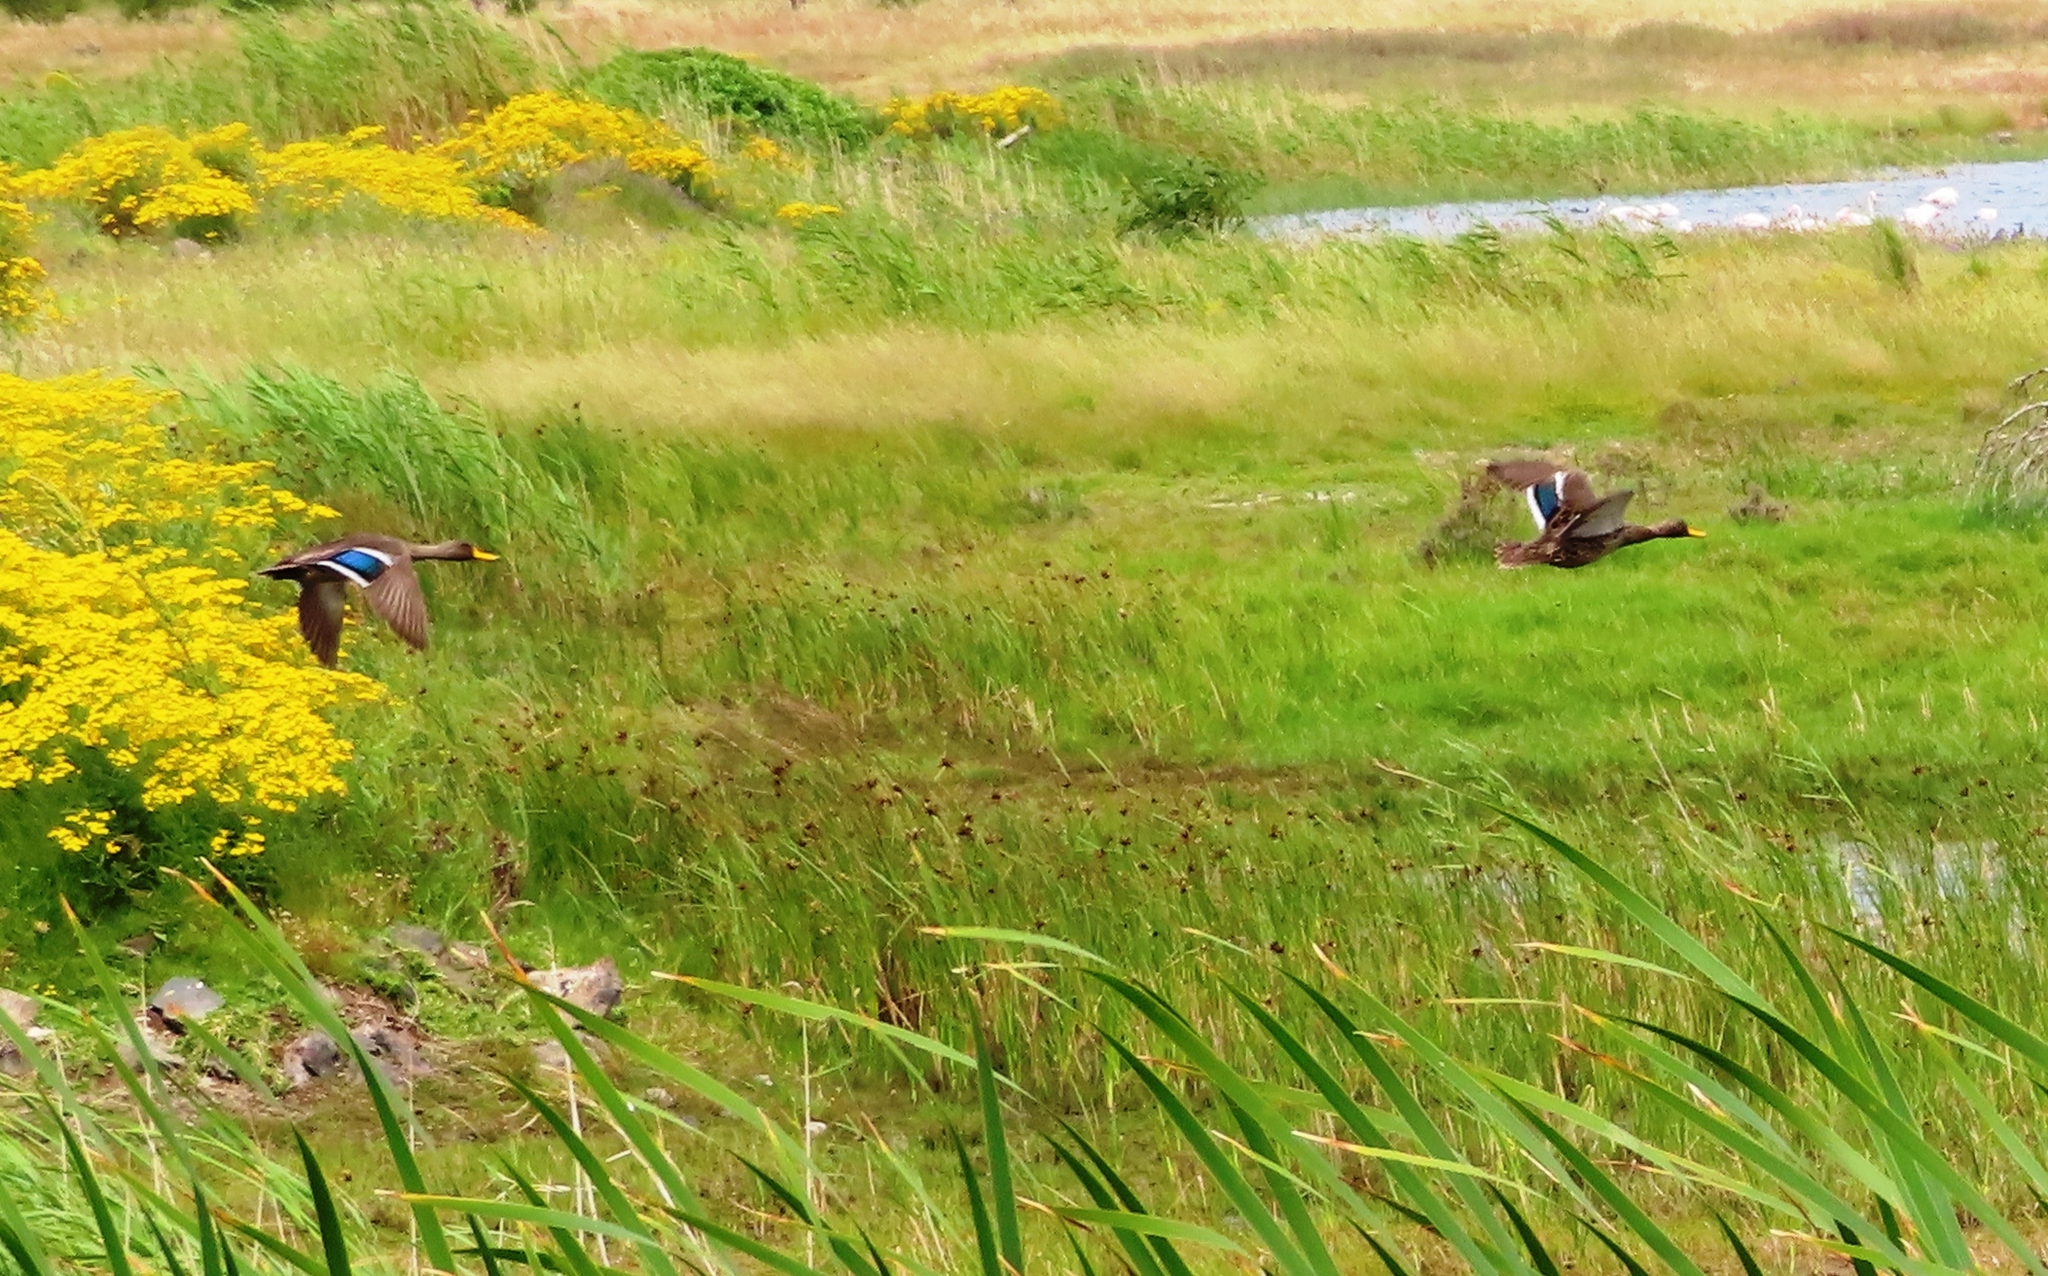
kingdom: Animalia
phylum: Chordata
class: Aves
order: Anseriformes
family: Anatidae
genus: Anas
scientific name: Anas undulata
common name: Yellow-billed duck
